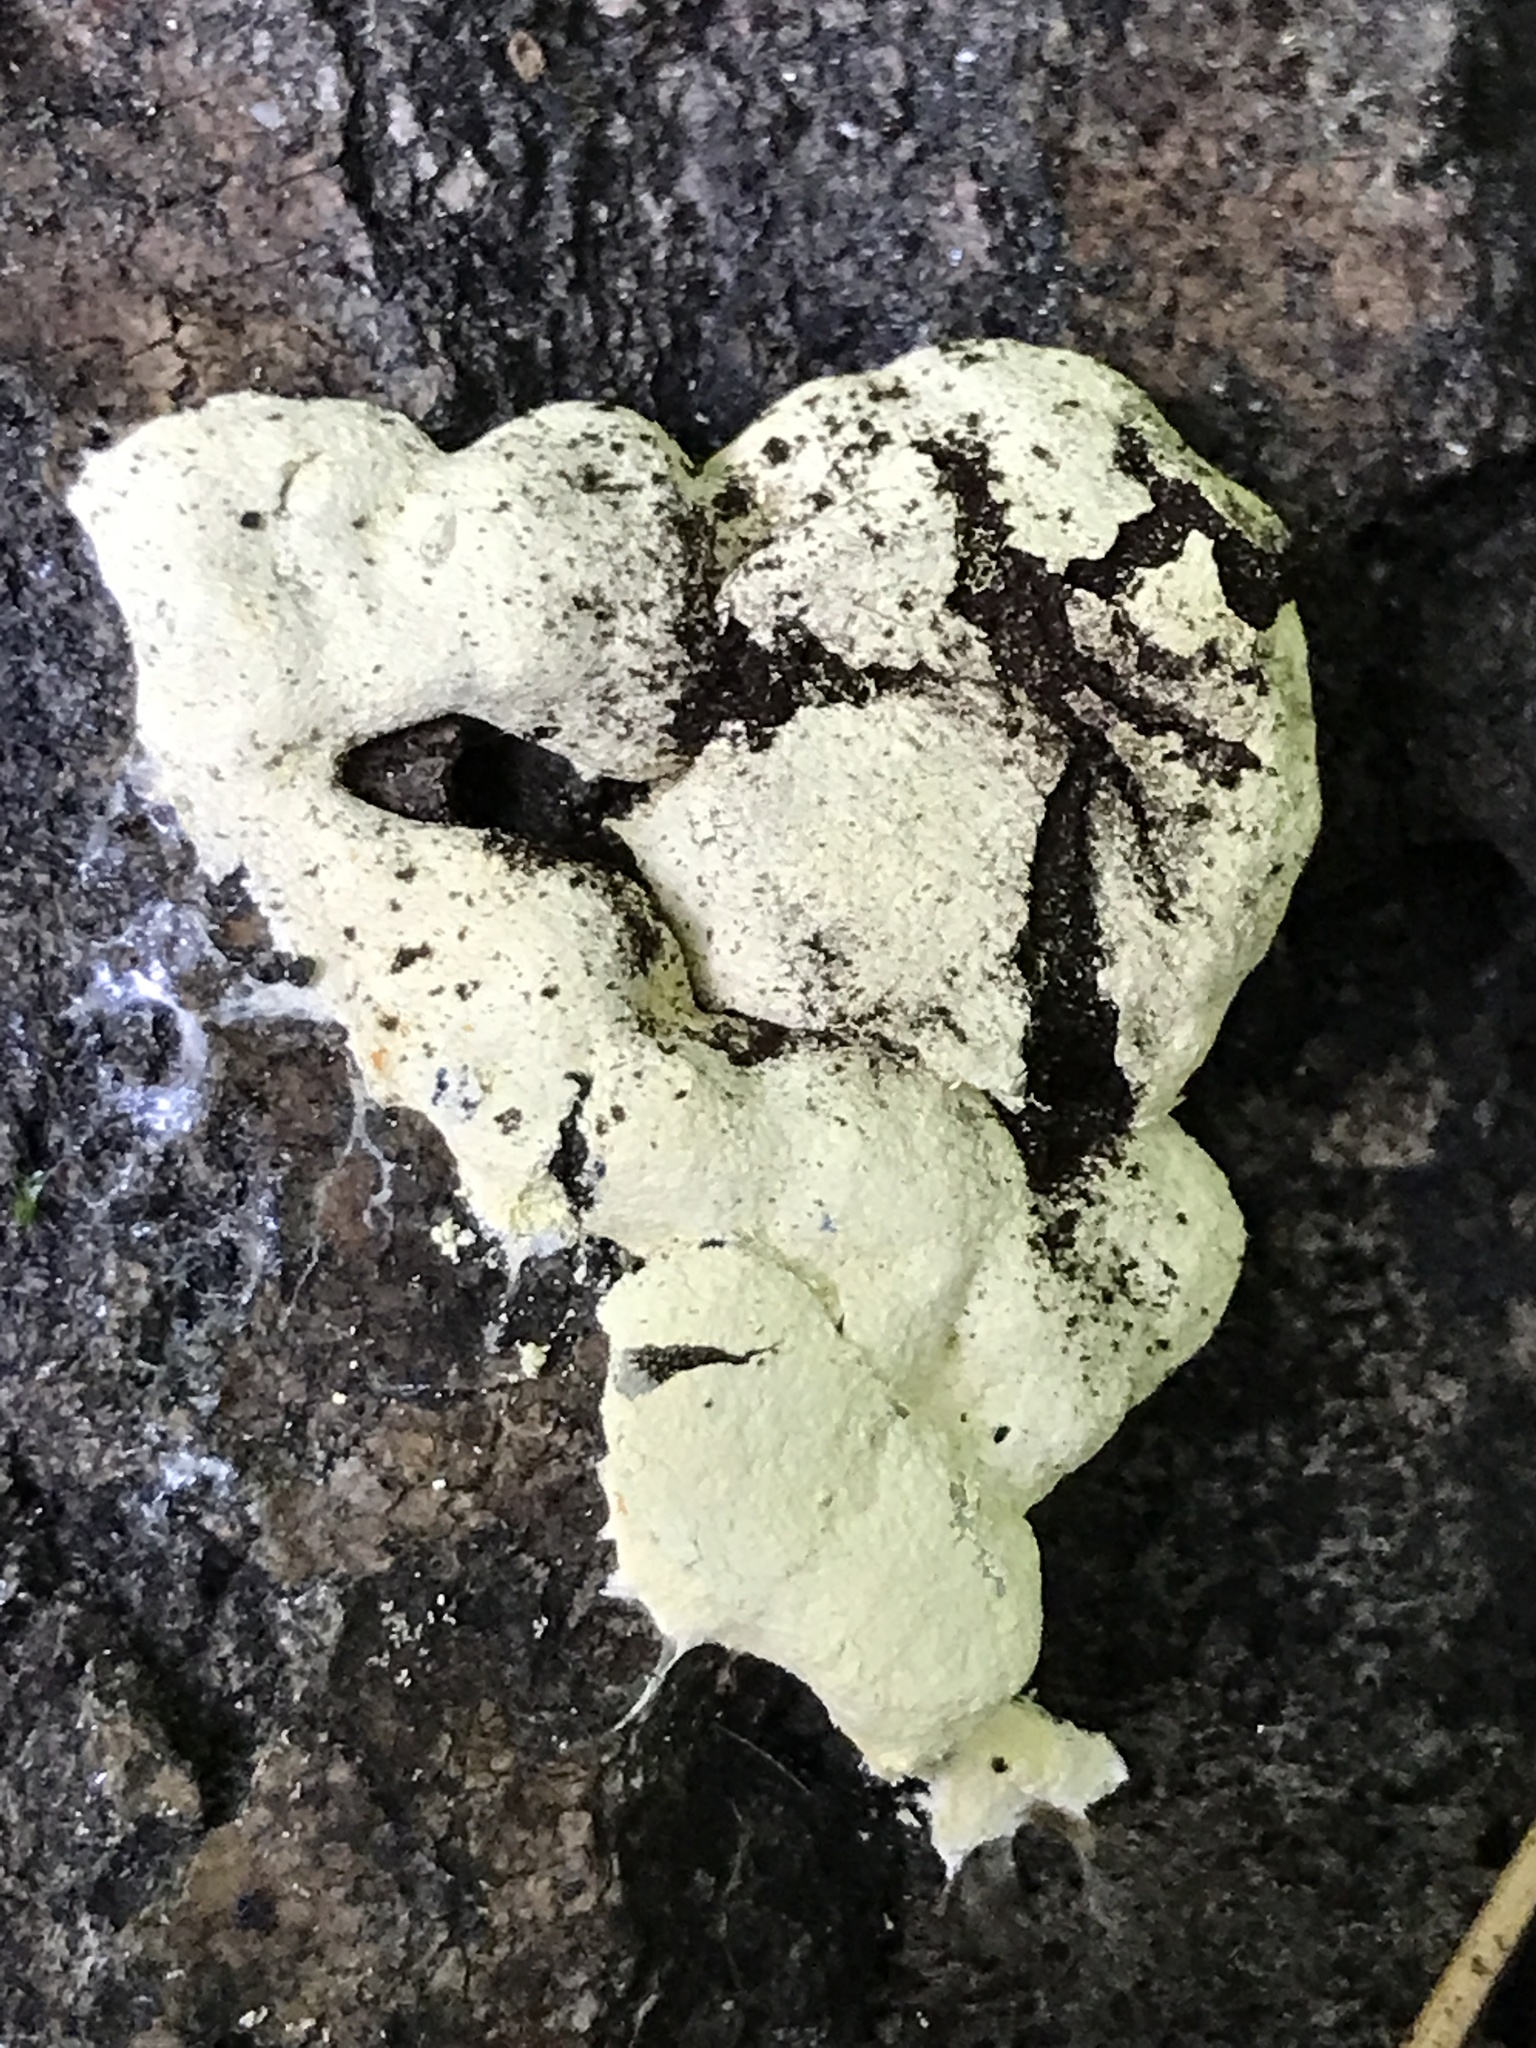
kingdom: Protozoa
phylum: Mycetozoa
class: Myxomycetes
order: Physarales
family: Physaraceae
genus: Fuligo
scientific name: Fuligo septica
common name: Dog vomit slime mold
